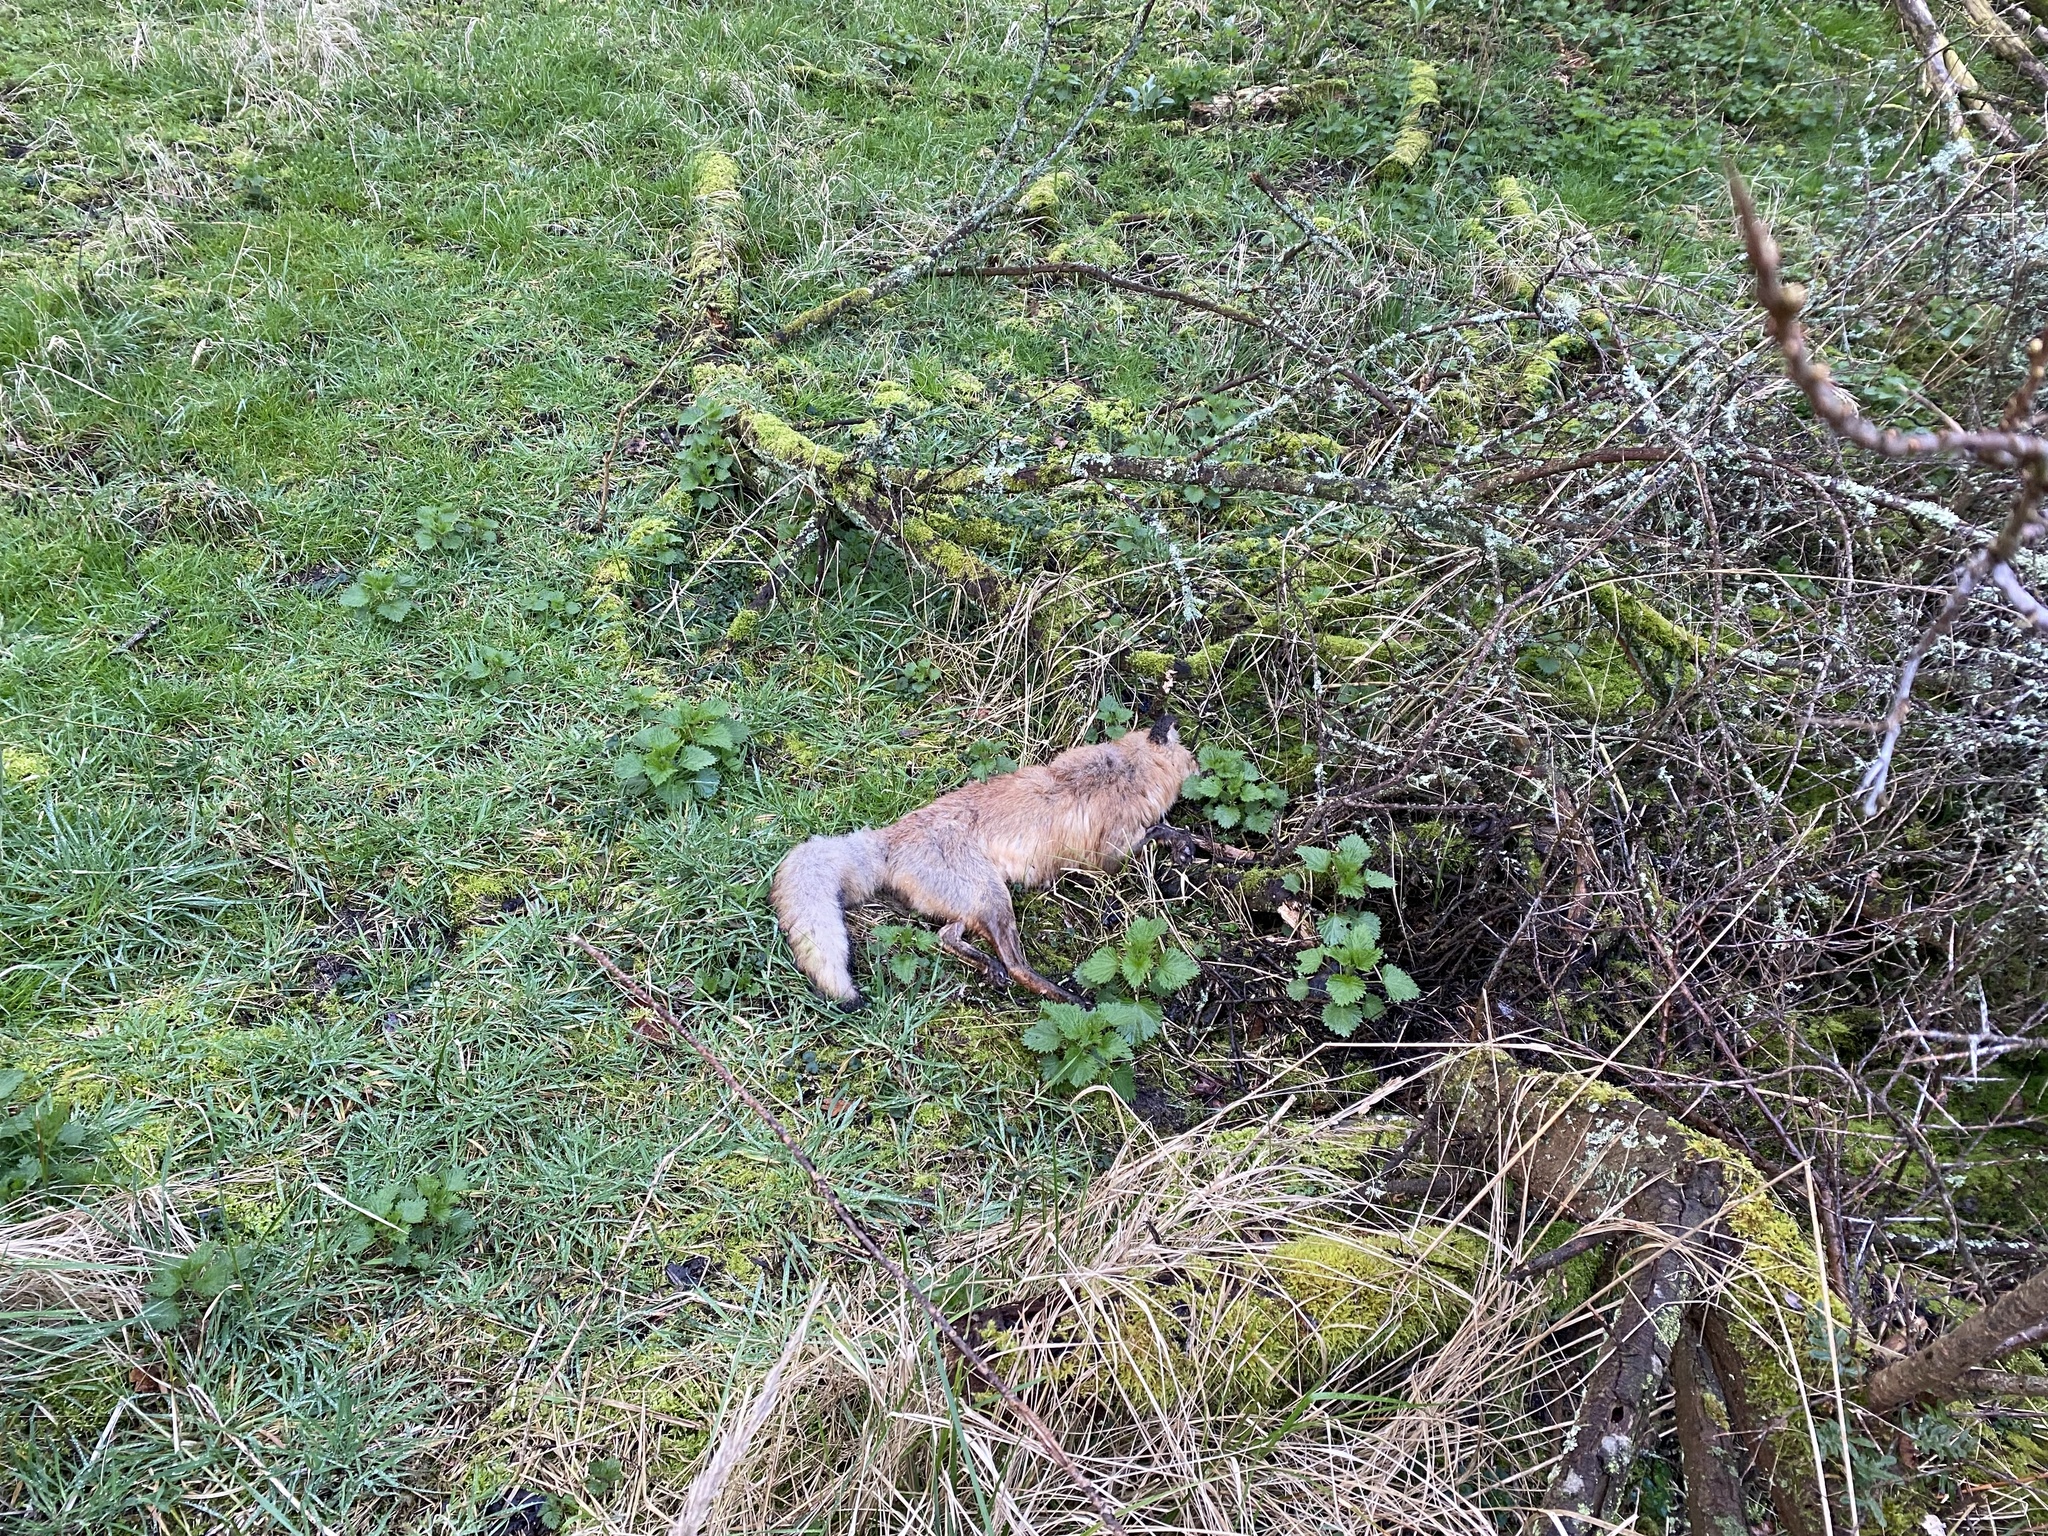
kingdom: Animalia
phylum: Chordata
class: Mammalia
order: Carnivora
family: Canidae
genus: Vulpes
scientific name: Vulpes vulpes
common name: Red fox
